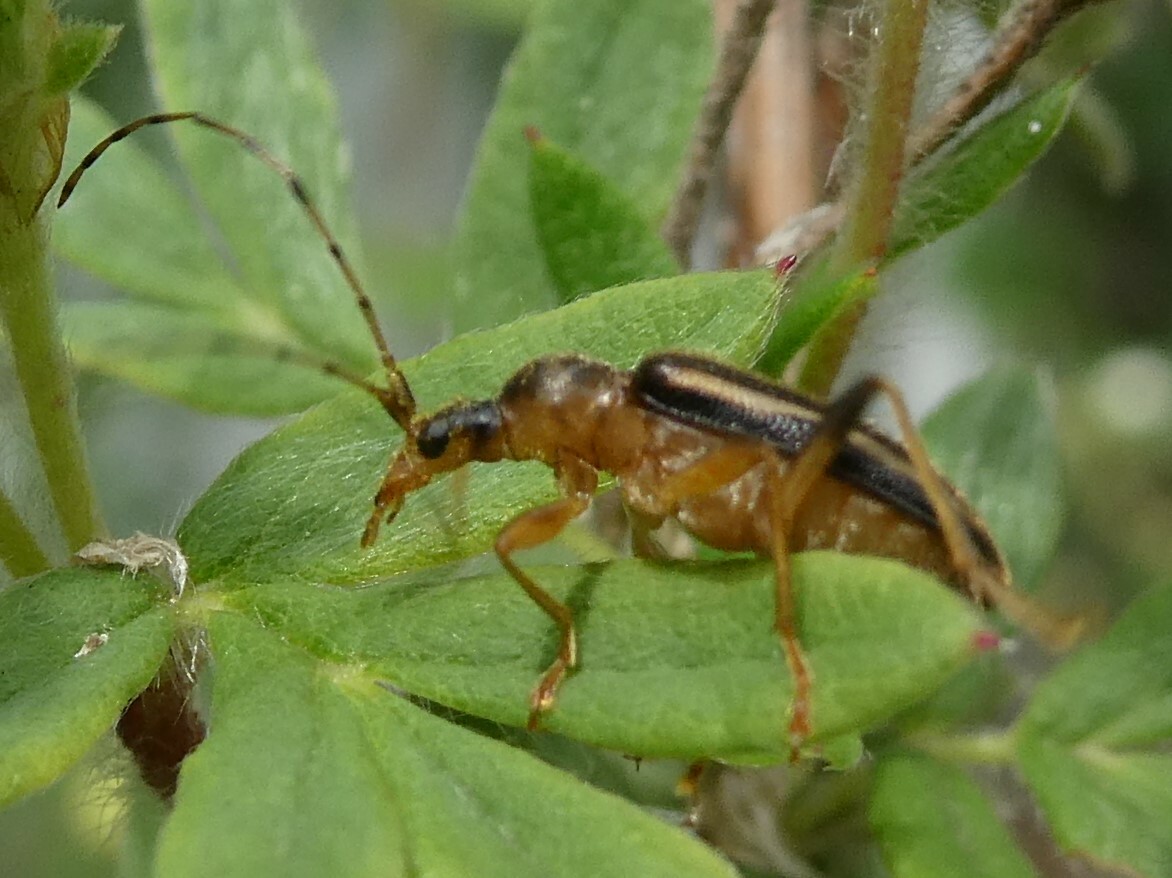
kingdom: Animalia
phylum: Arthropoda
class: Insecta
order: Coleoptera
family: Cerambycidae
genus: Metacmaeops
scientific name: Metacmaeops vittata
